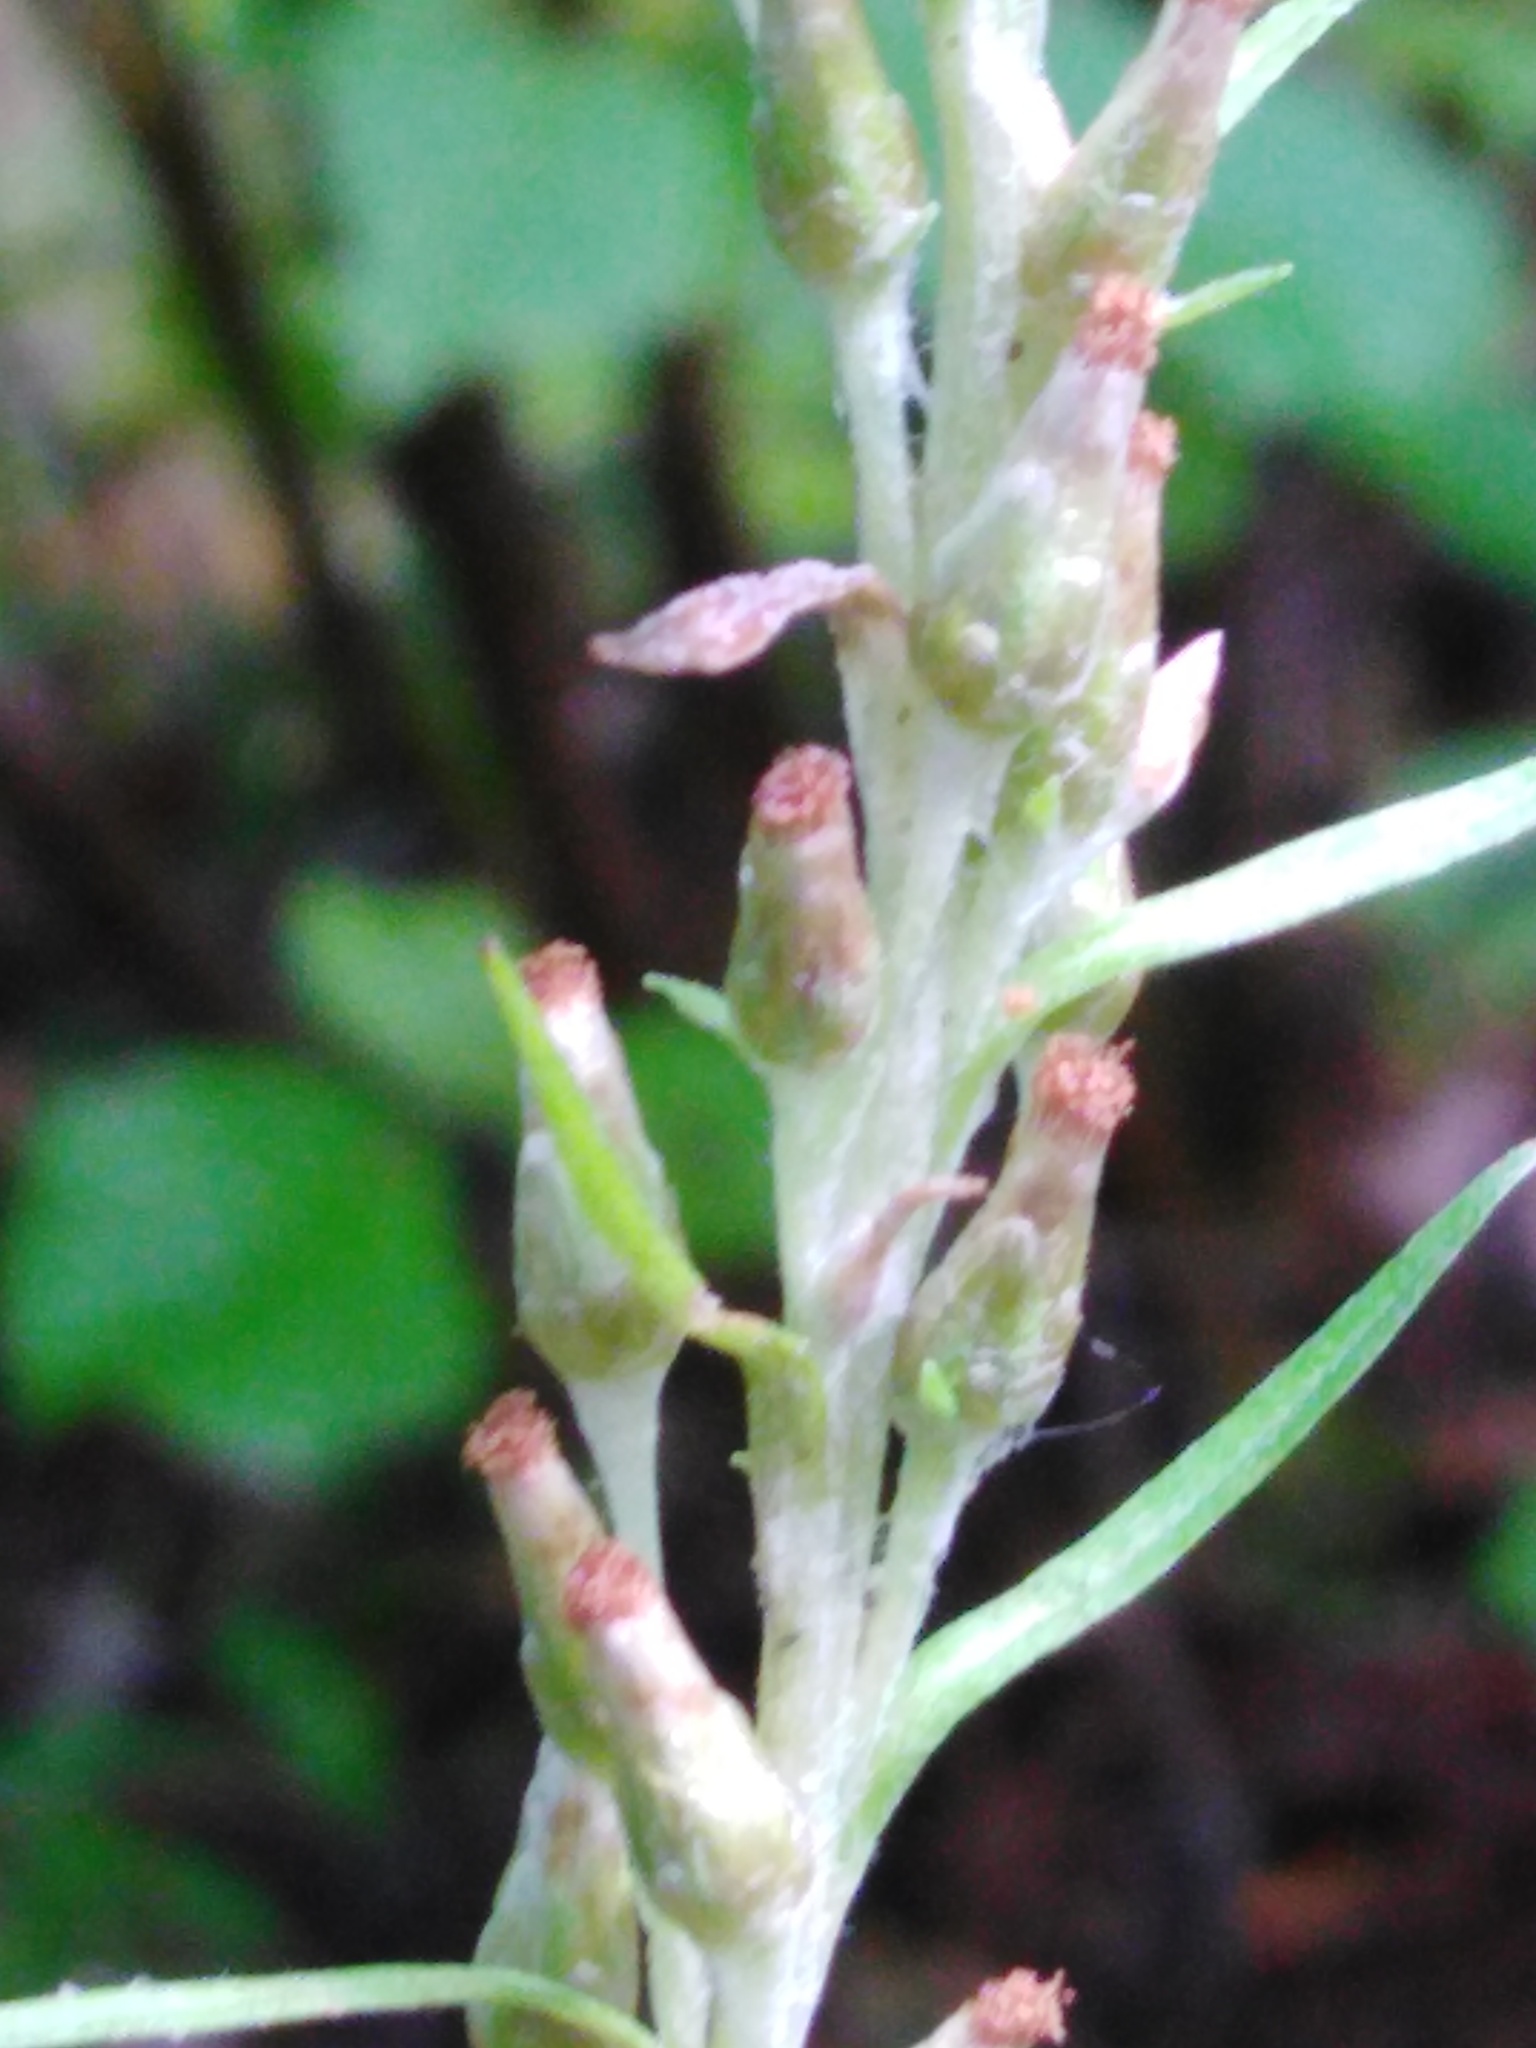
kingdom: Plantae
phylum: Tracheophyta
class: Magnoliopsida
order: Asterales
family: Asteraceae
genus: Omalotheca
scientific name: Omalotheca sylvatica
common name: Heath cudweed
